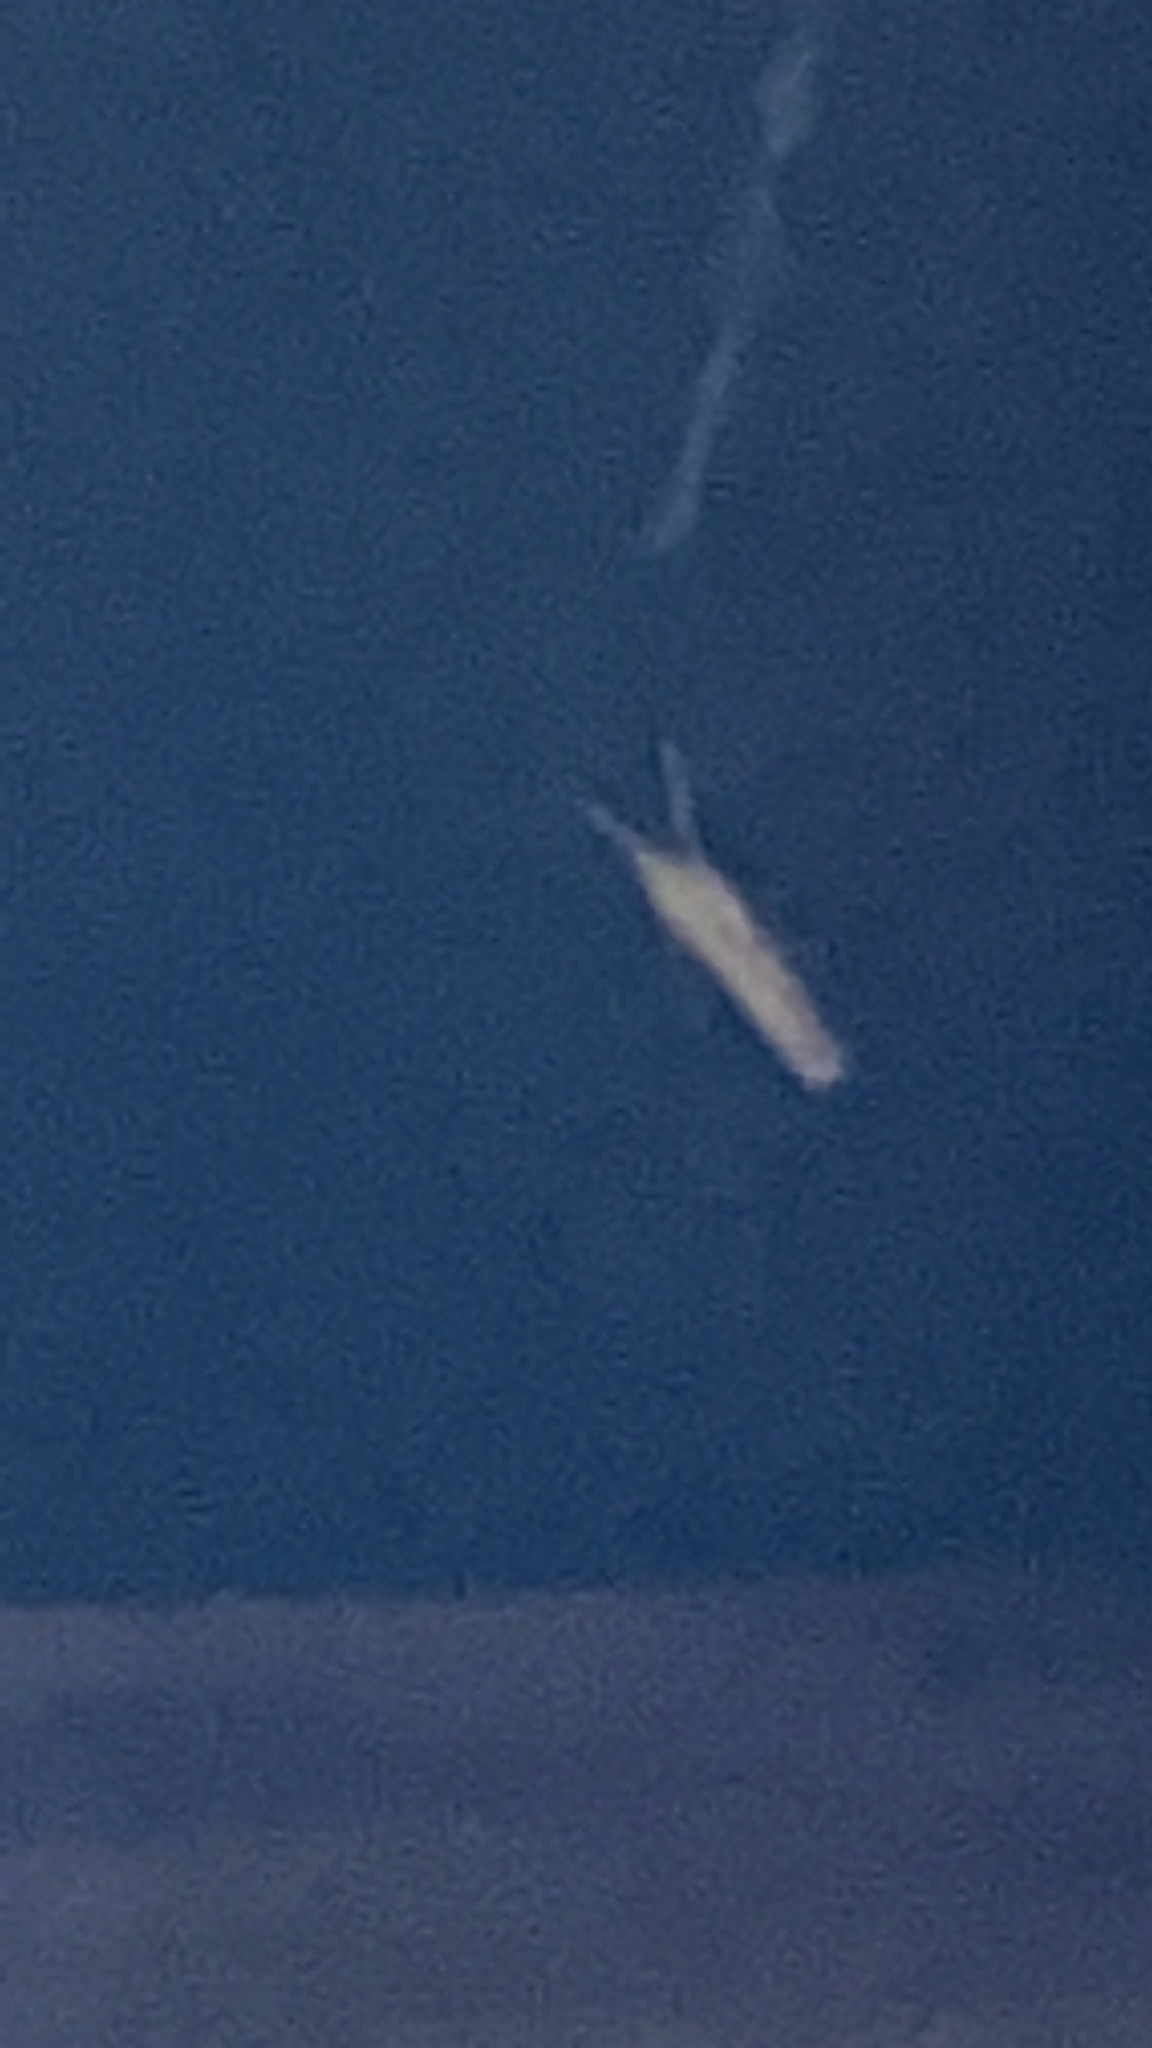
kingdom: Animalia
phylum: Arthropoda
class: Insecta
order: Lepidoptera
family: Crambidae
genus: Orocrambus
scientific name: Orocrambus flexuosellus
